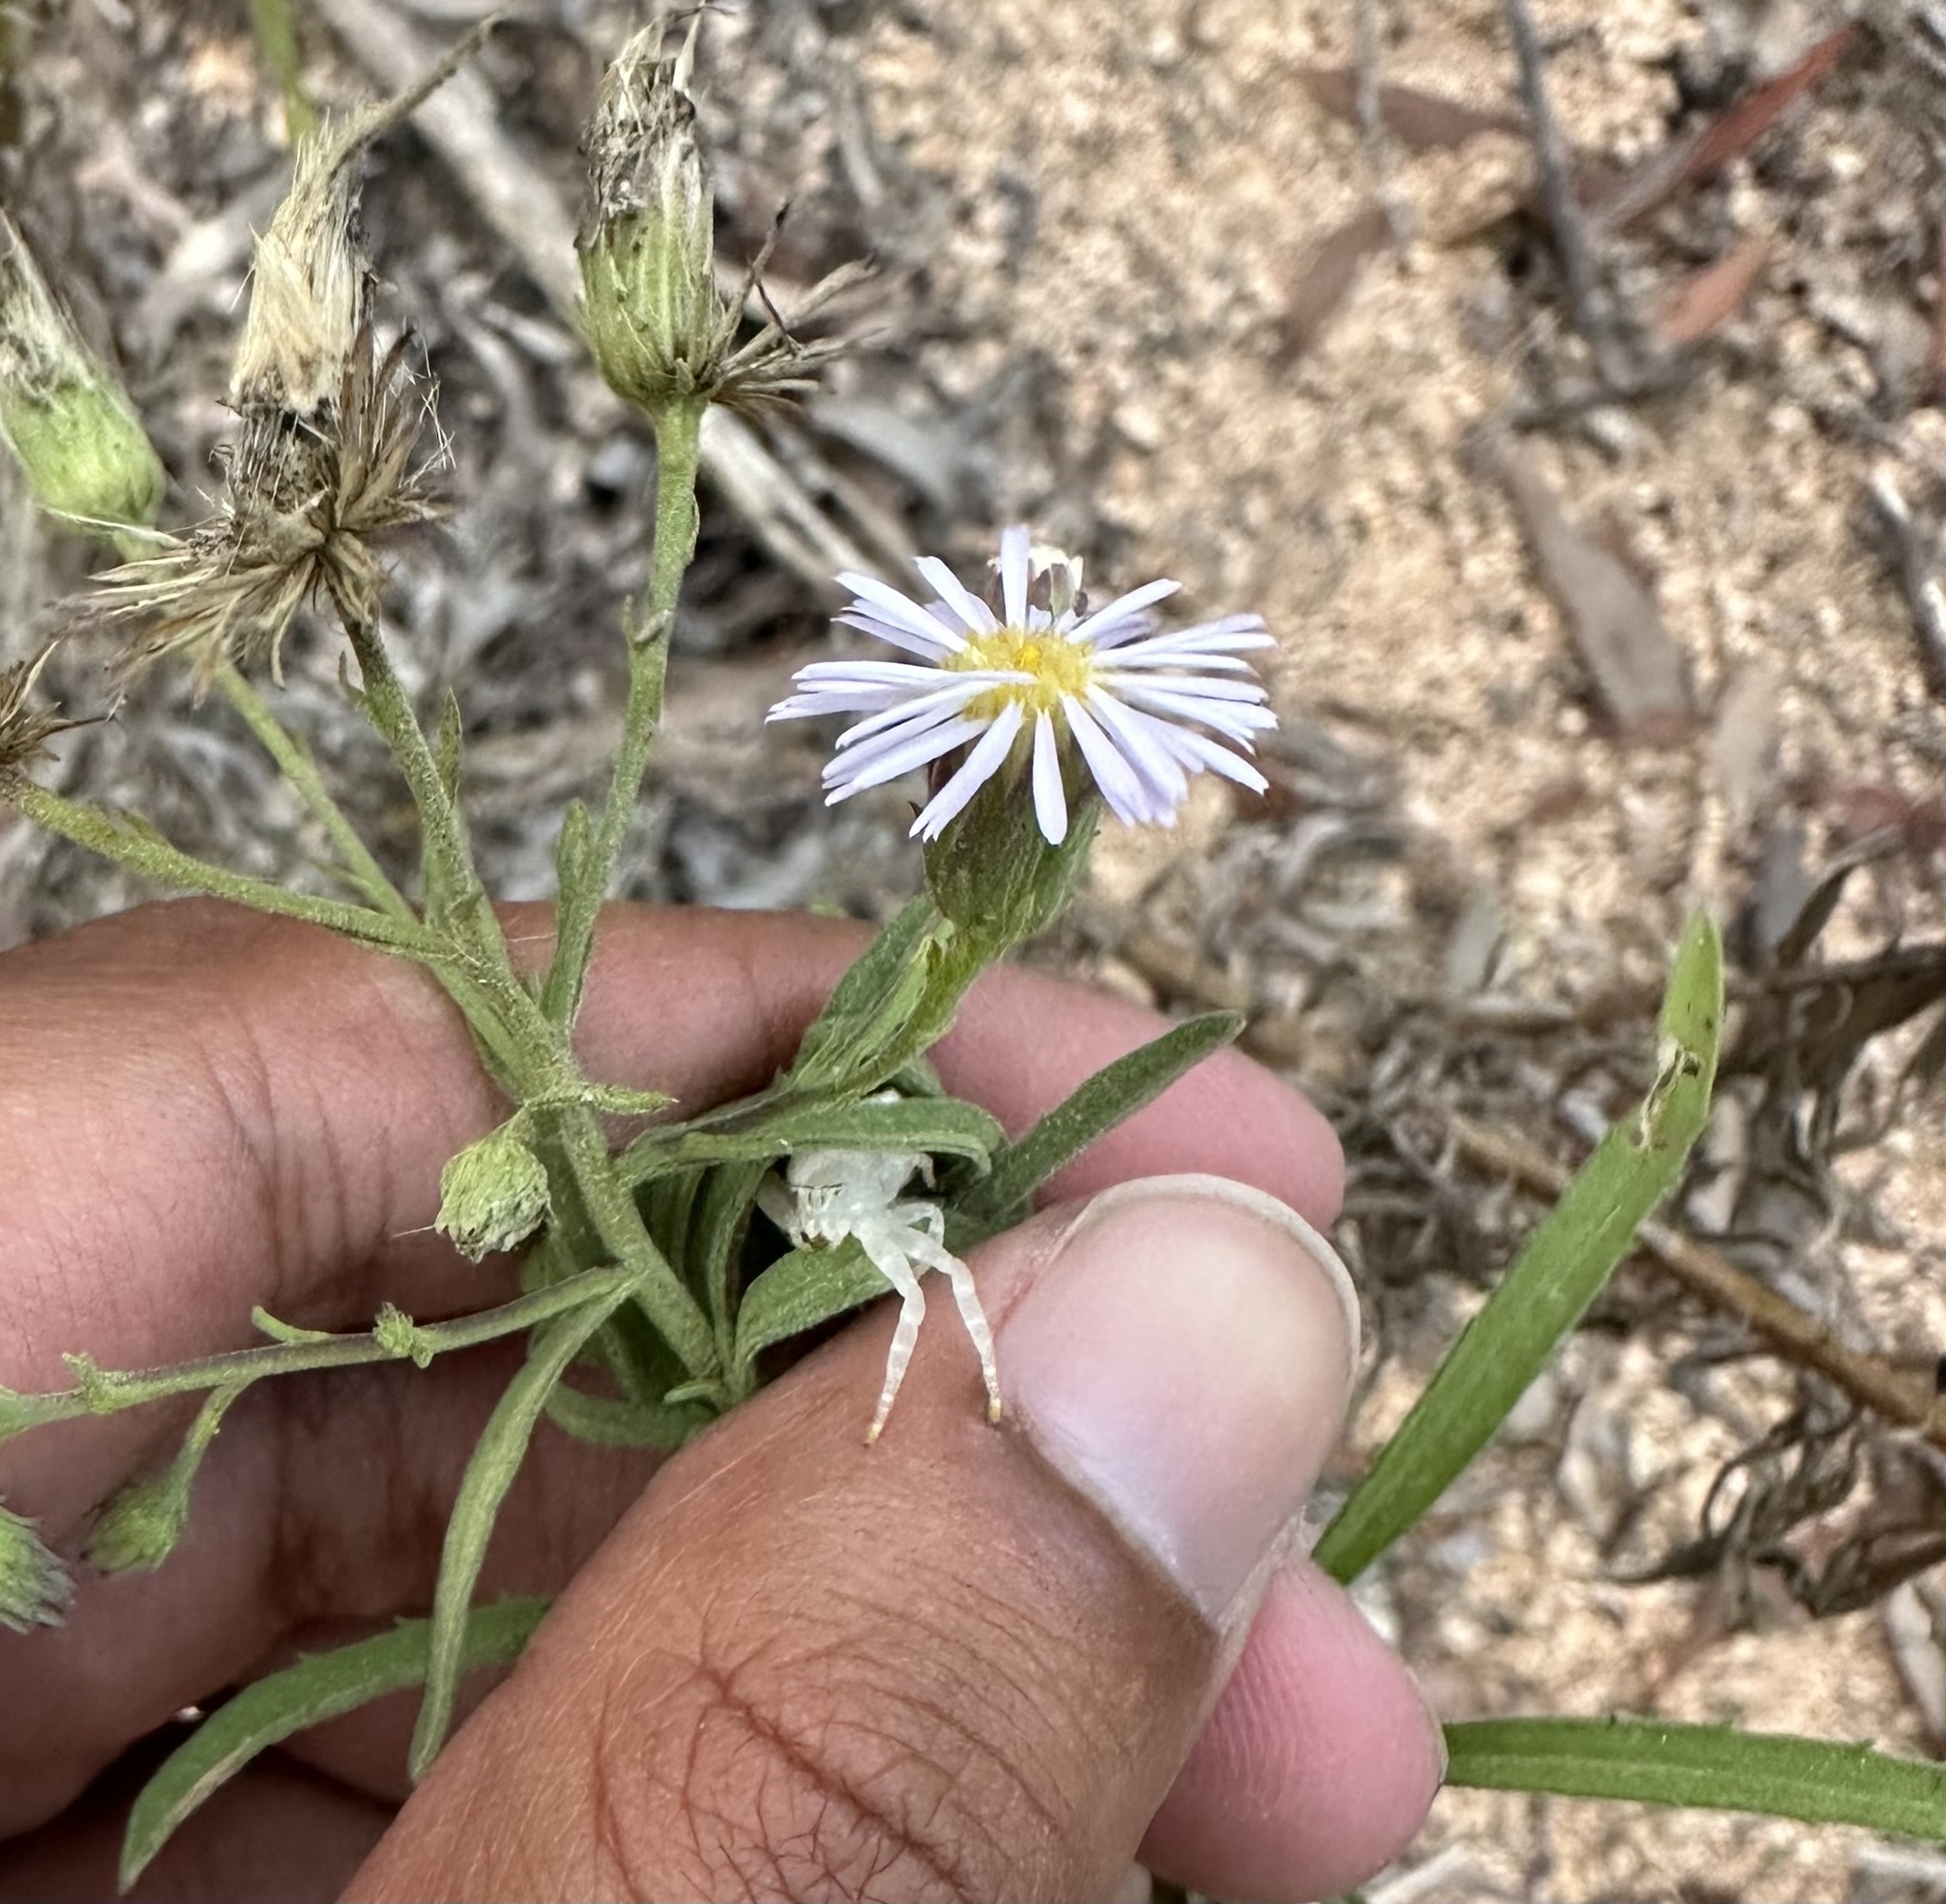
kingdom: Plantae
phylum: Tracheophyta
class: Magnoliopsida
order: Asterales
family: Asteraceae
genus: Camptacra
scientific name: Camptacra barbata
